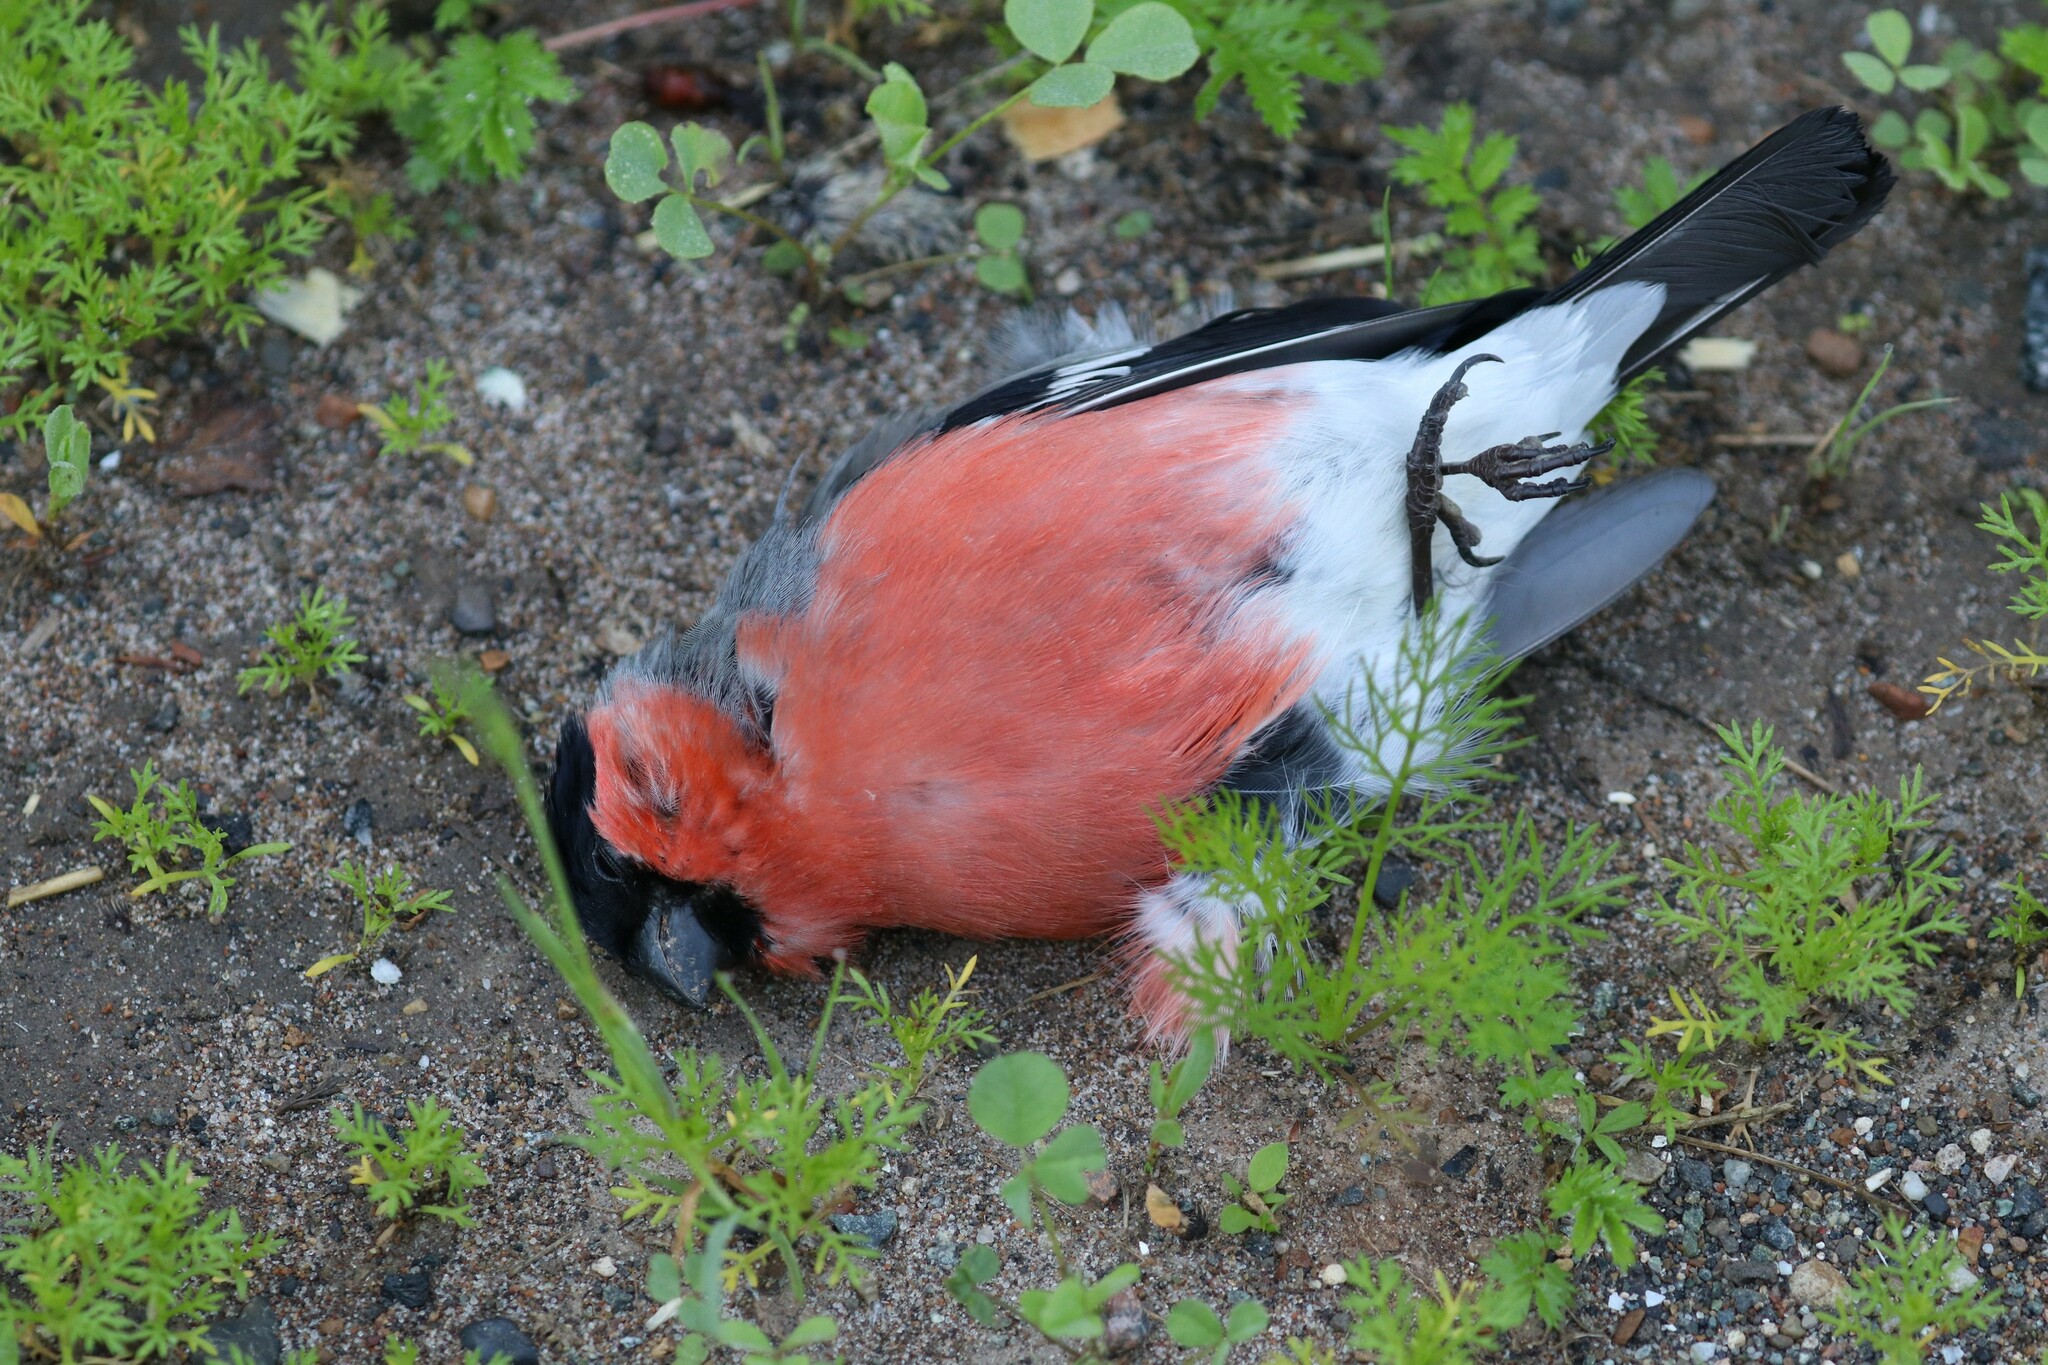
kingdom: Animalia
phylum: Chordata
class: Aves
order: Passeriformes
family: Fringillidae
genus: Pyrrhula
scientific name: Pyrrhula pyrrhula
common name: Eurasian bullfinch
